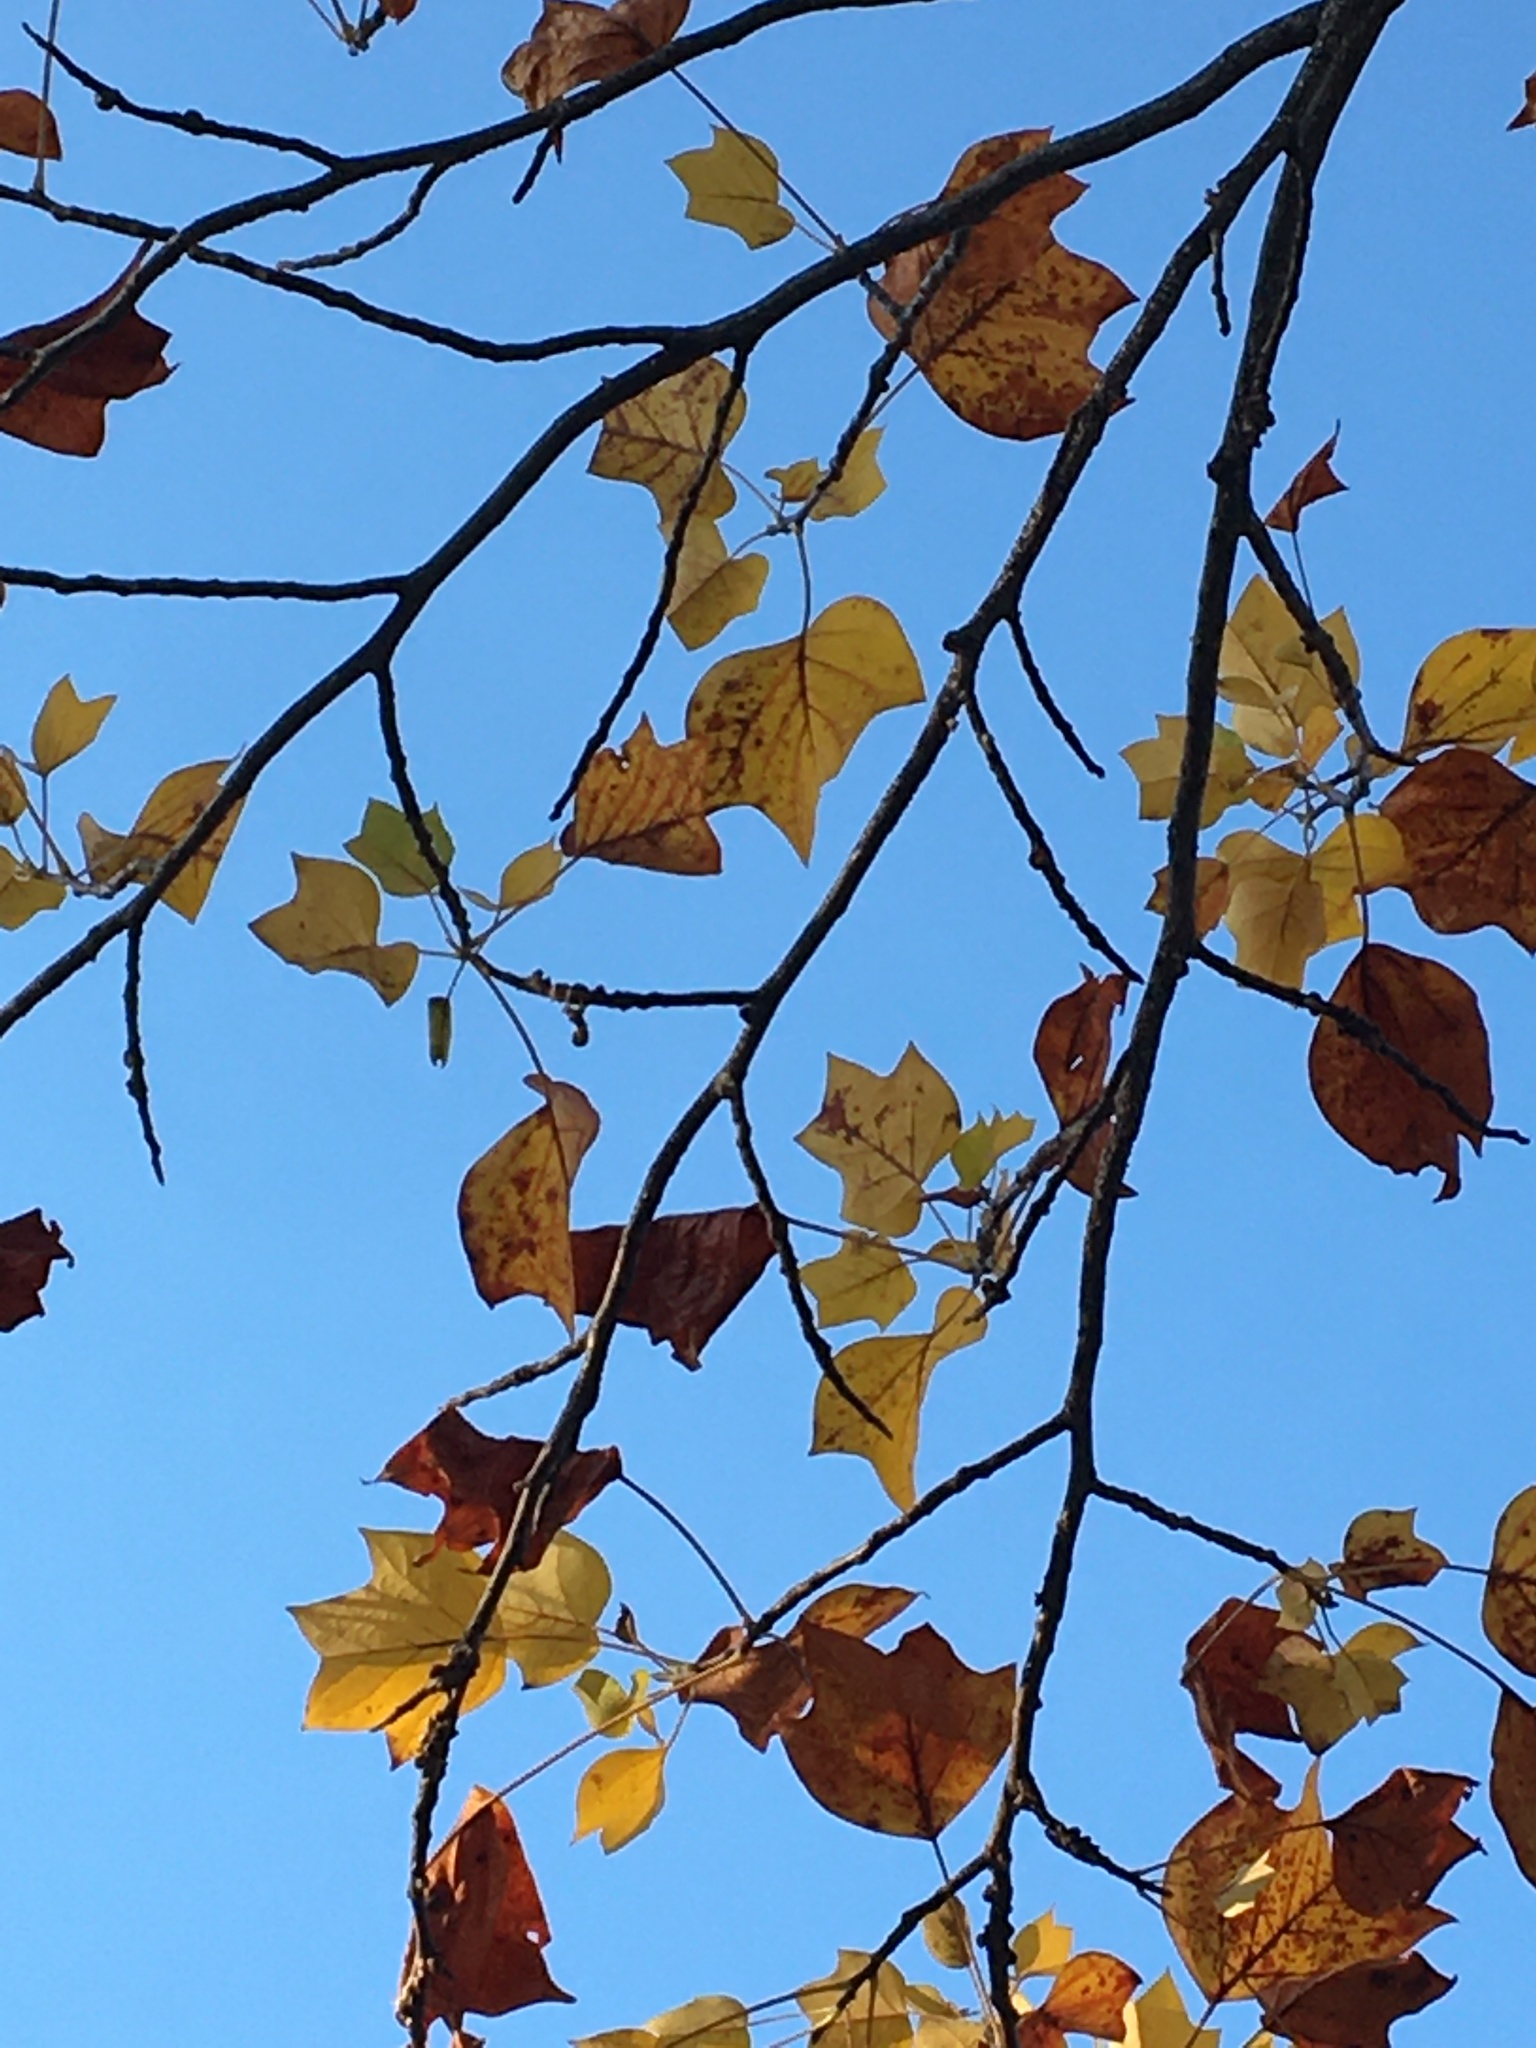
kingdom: Plantae
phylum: Tracheophyta
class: Magnoliopsida
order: Magnoliales
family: Magnoliaceae
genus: Liriodendron
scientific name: Liriodendron tulipifera
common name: Tulip tree
